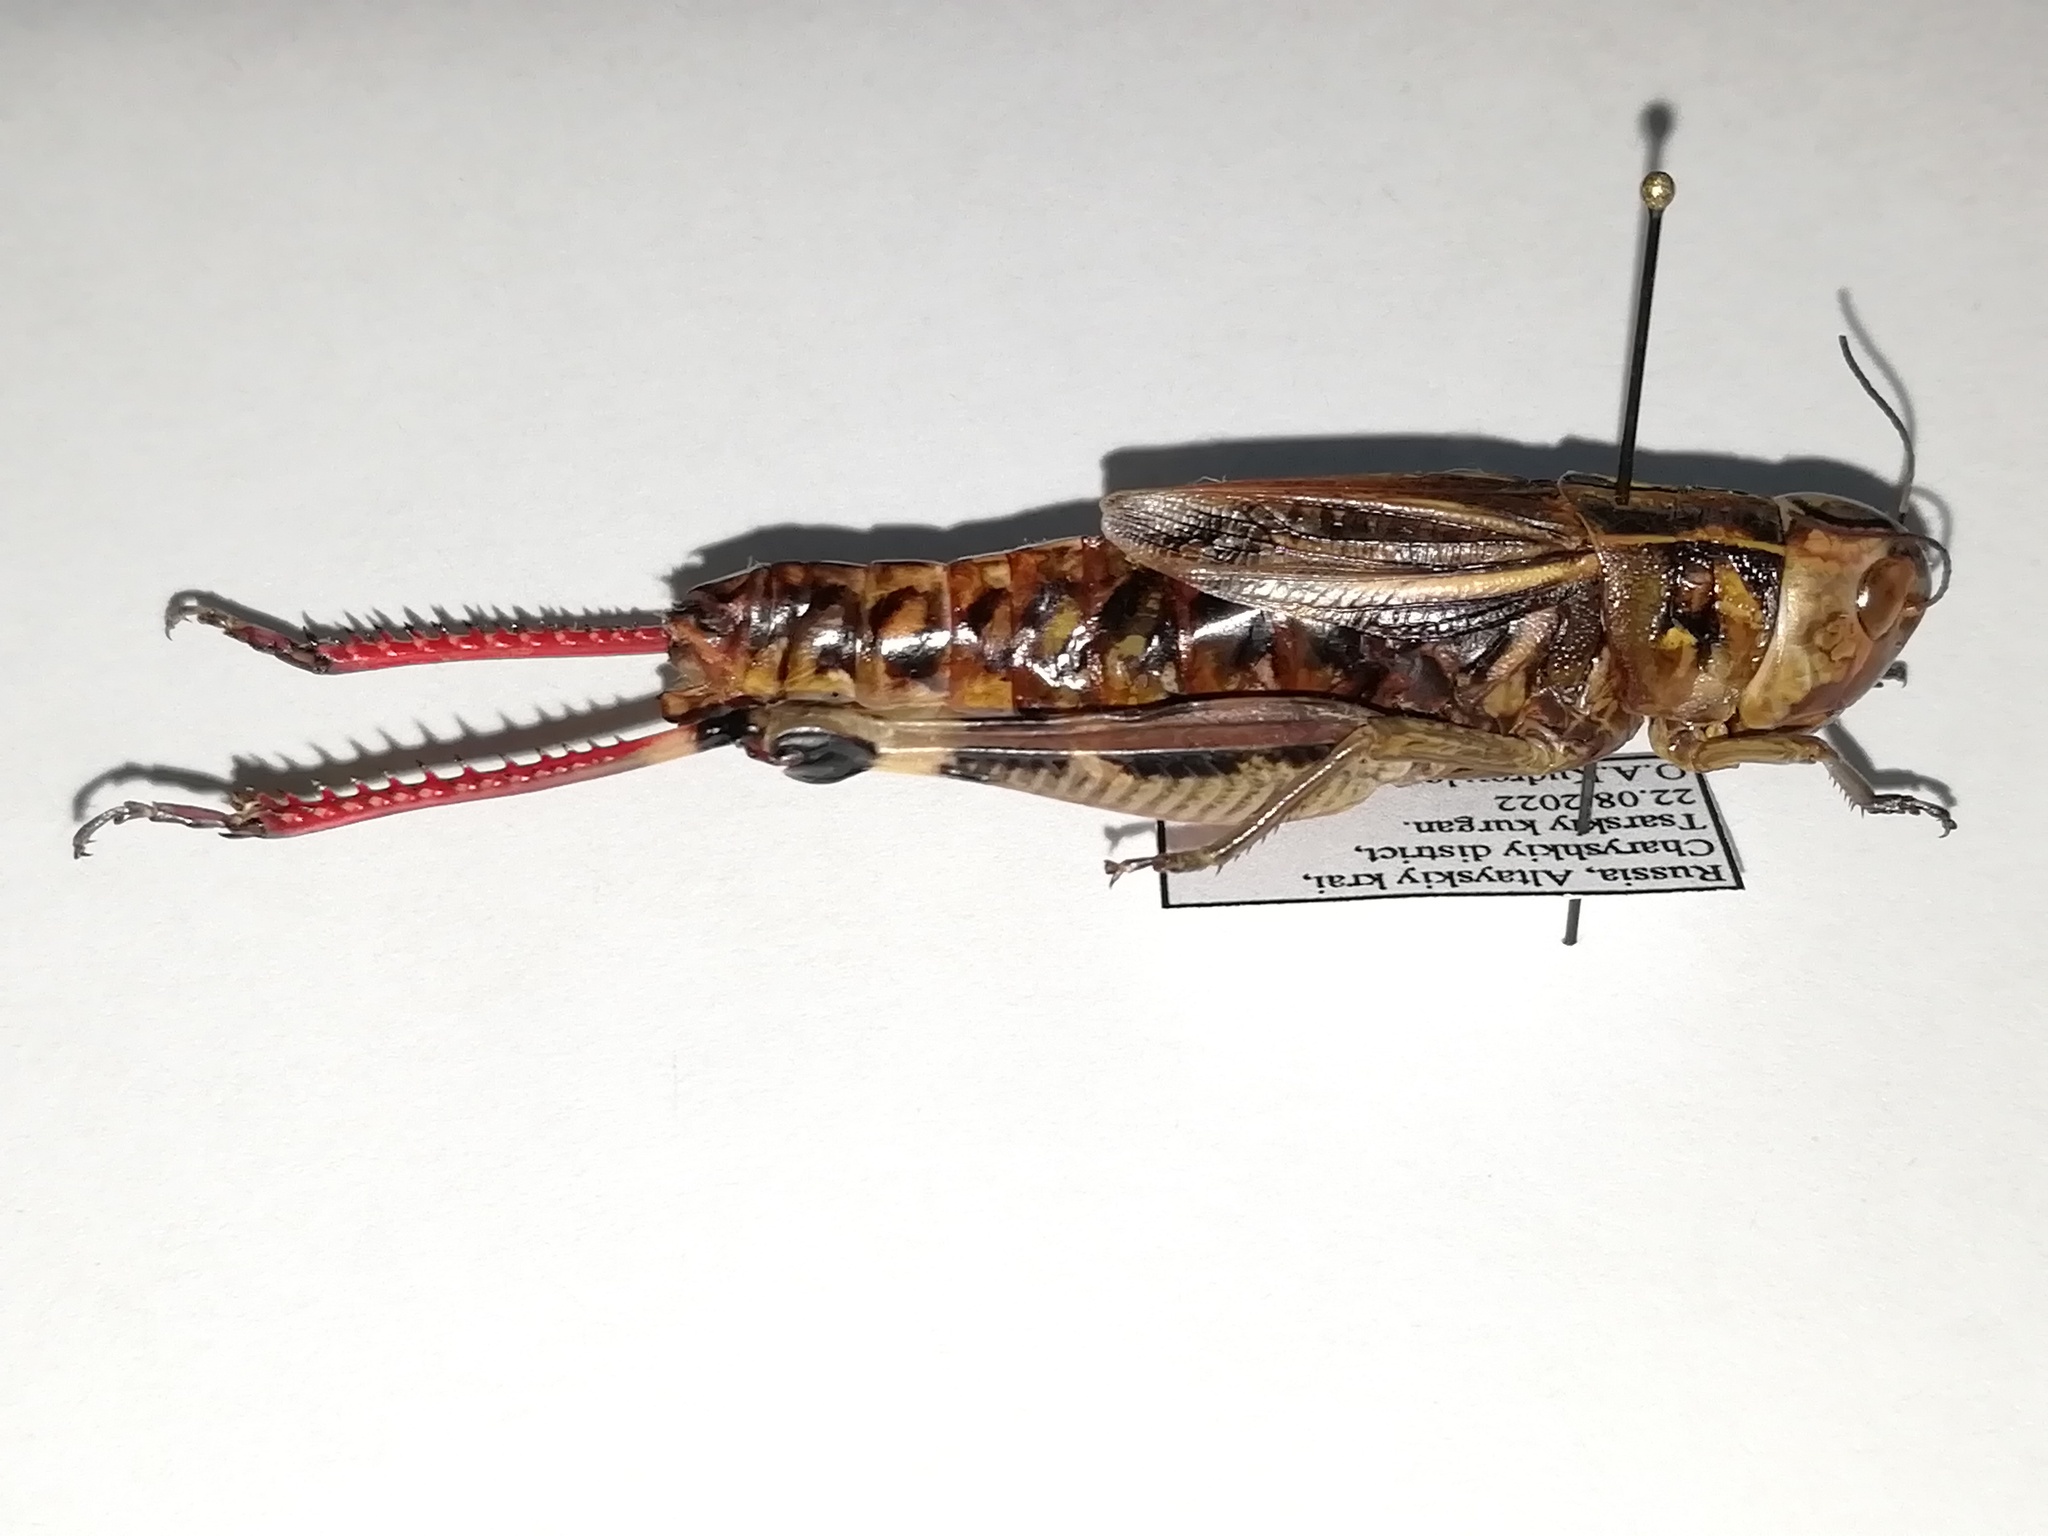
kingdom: Animalia
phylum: Arthropoda
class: Insecta
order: Orthoptera
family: Acrididae
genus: Arcyptera
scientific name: Arcyptera fusca
